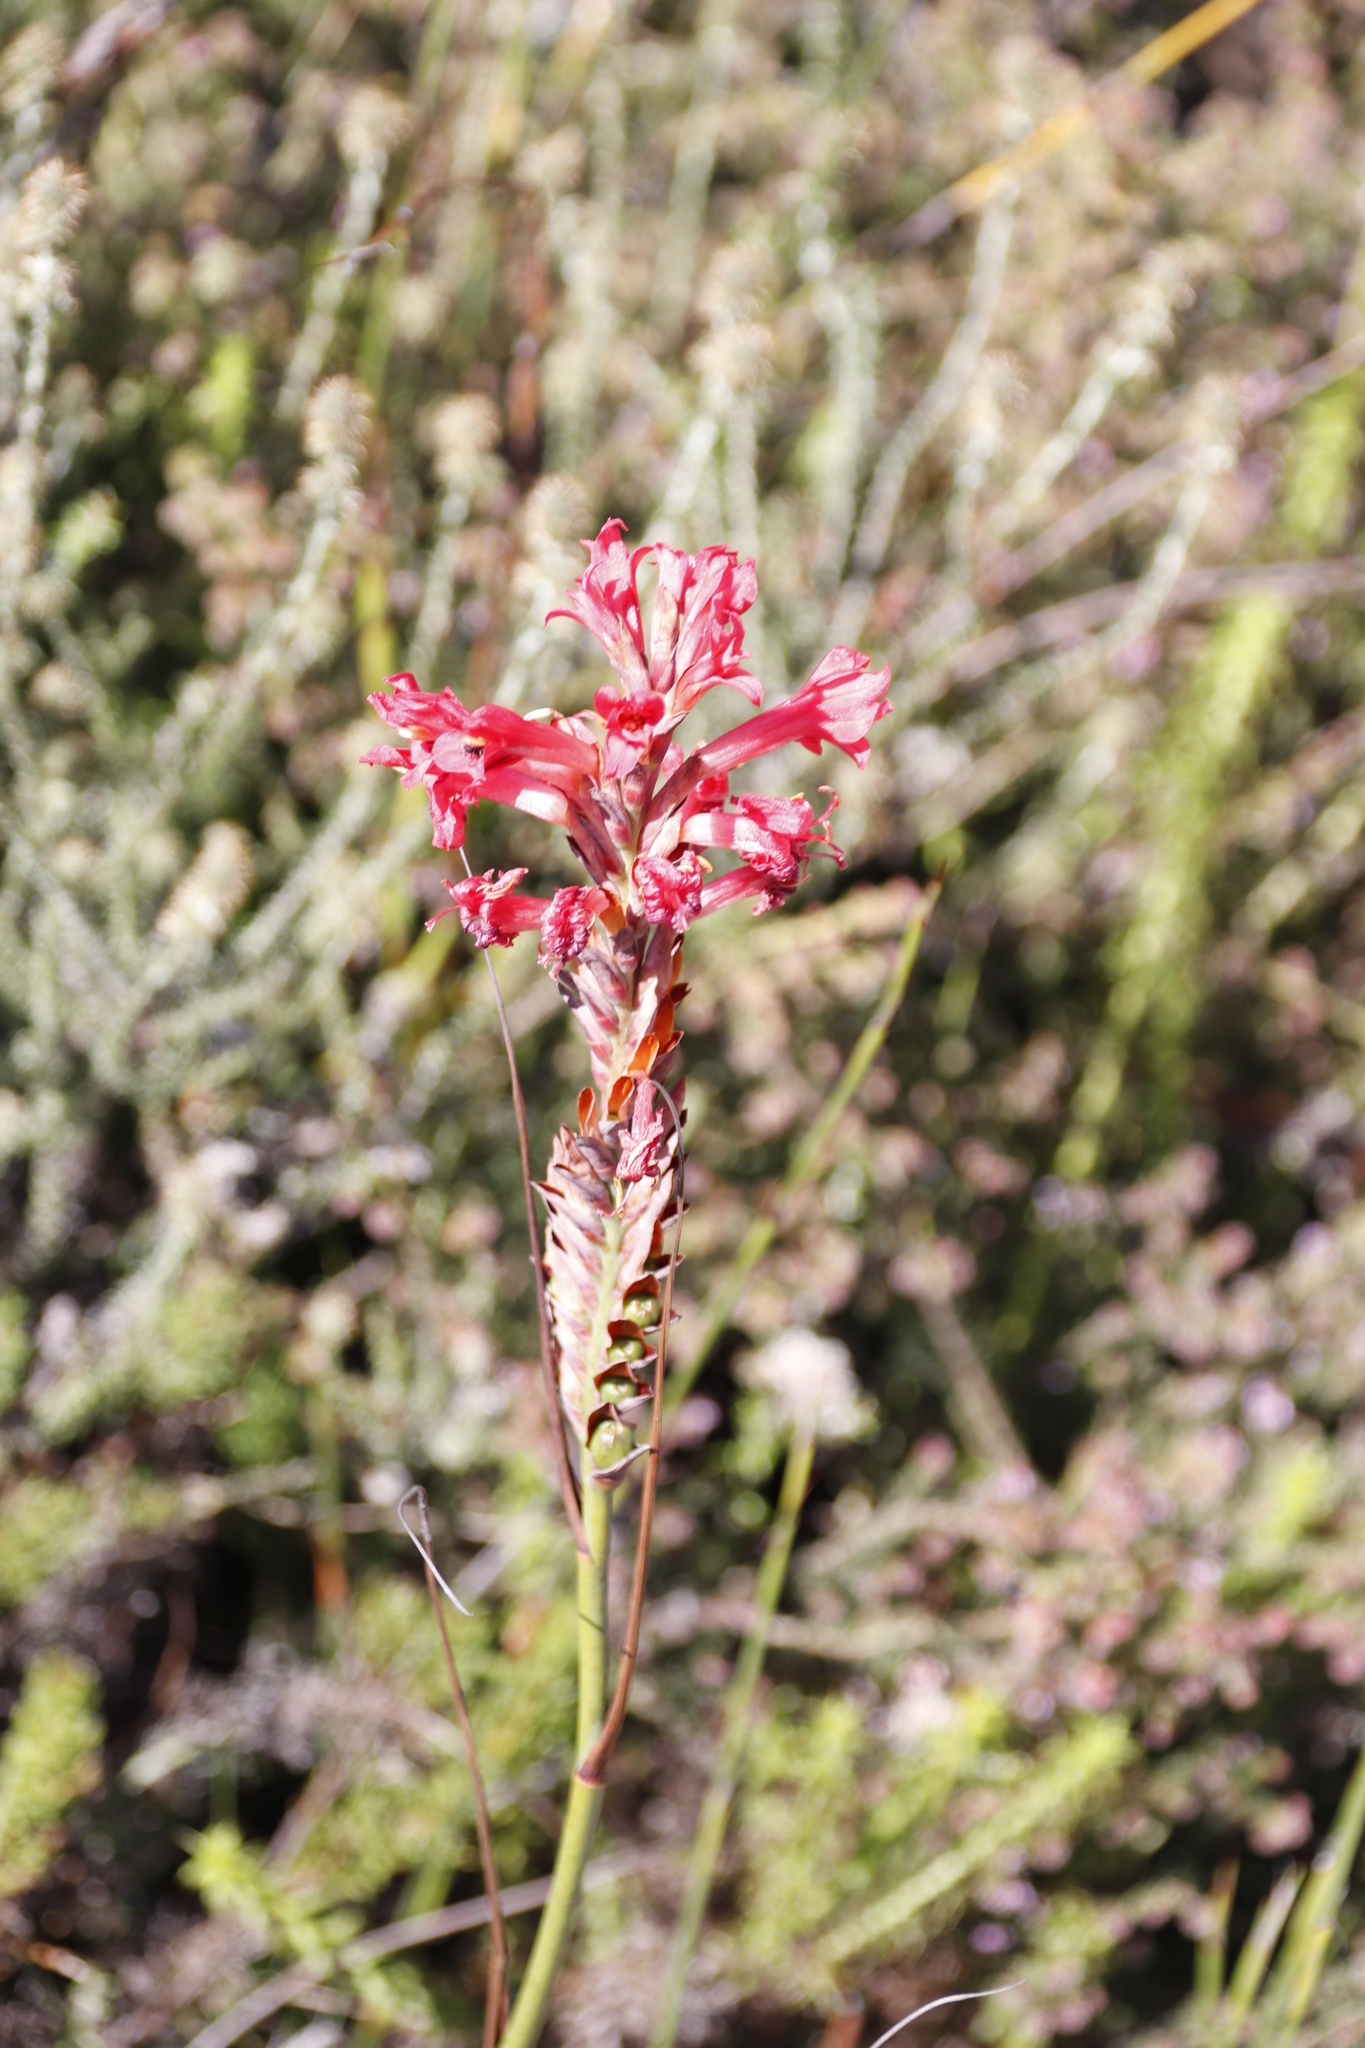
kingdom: Plantae
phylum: Tracheophyta
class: Liliopsida
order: Asparagales
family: Iridaceae
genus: Tritoniopsis
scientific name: Tritoniopsis triticea
